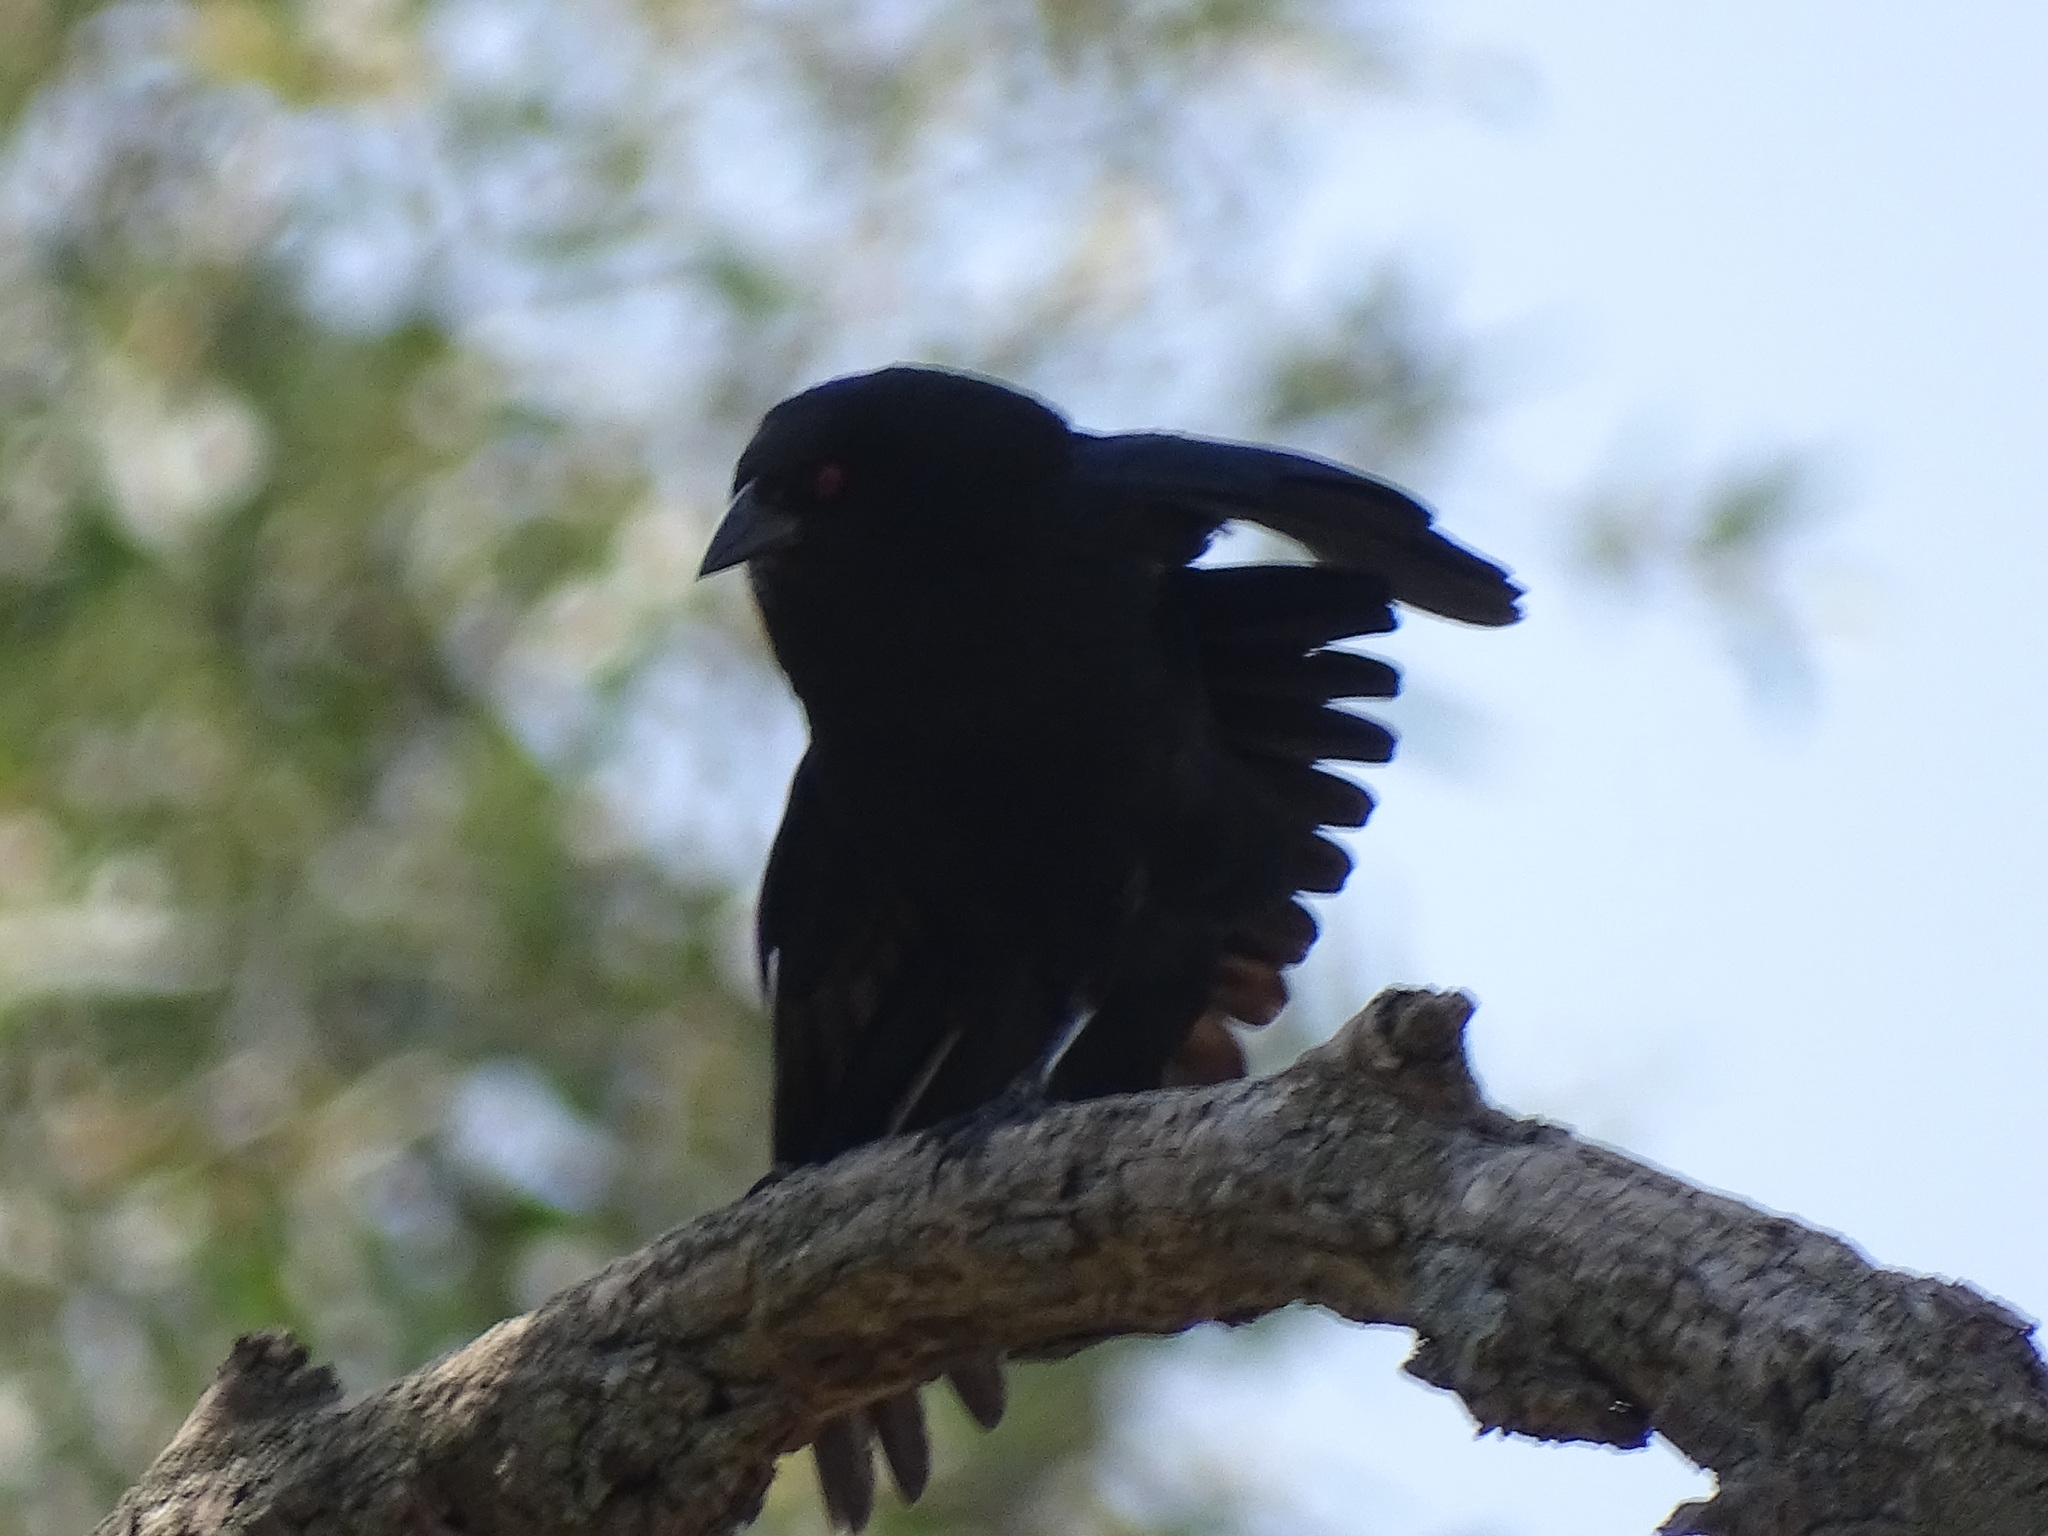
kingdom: Animalia
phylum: Chordata
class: Aves
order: Passeriformes
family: Icteridae
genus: Molothrus
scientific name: Molothrus aeneus
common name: Bronzed cowbird
